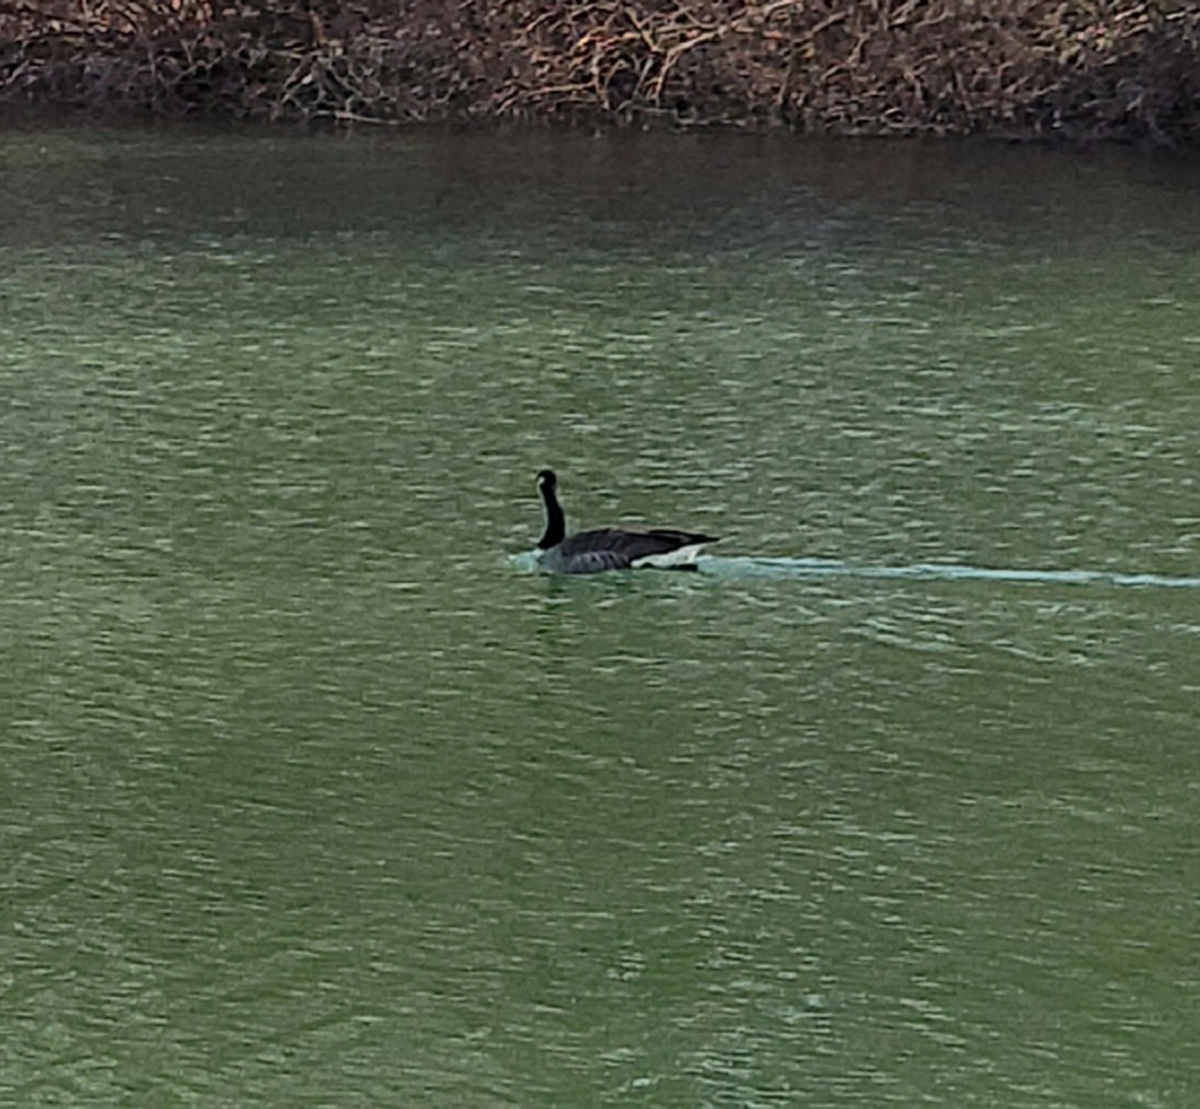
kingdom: Animalia
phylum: Chordata
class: Aves
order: Anseriformes
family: Anatidae
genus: Branta
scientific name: Branta canadensis
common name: Canada goose
